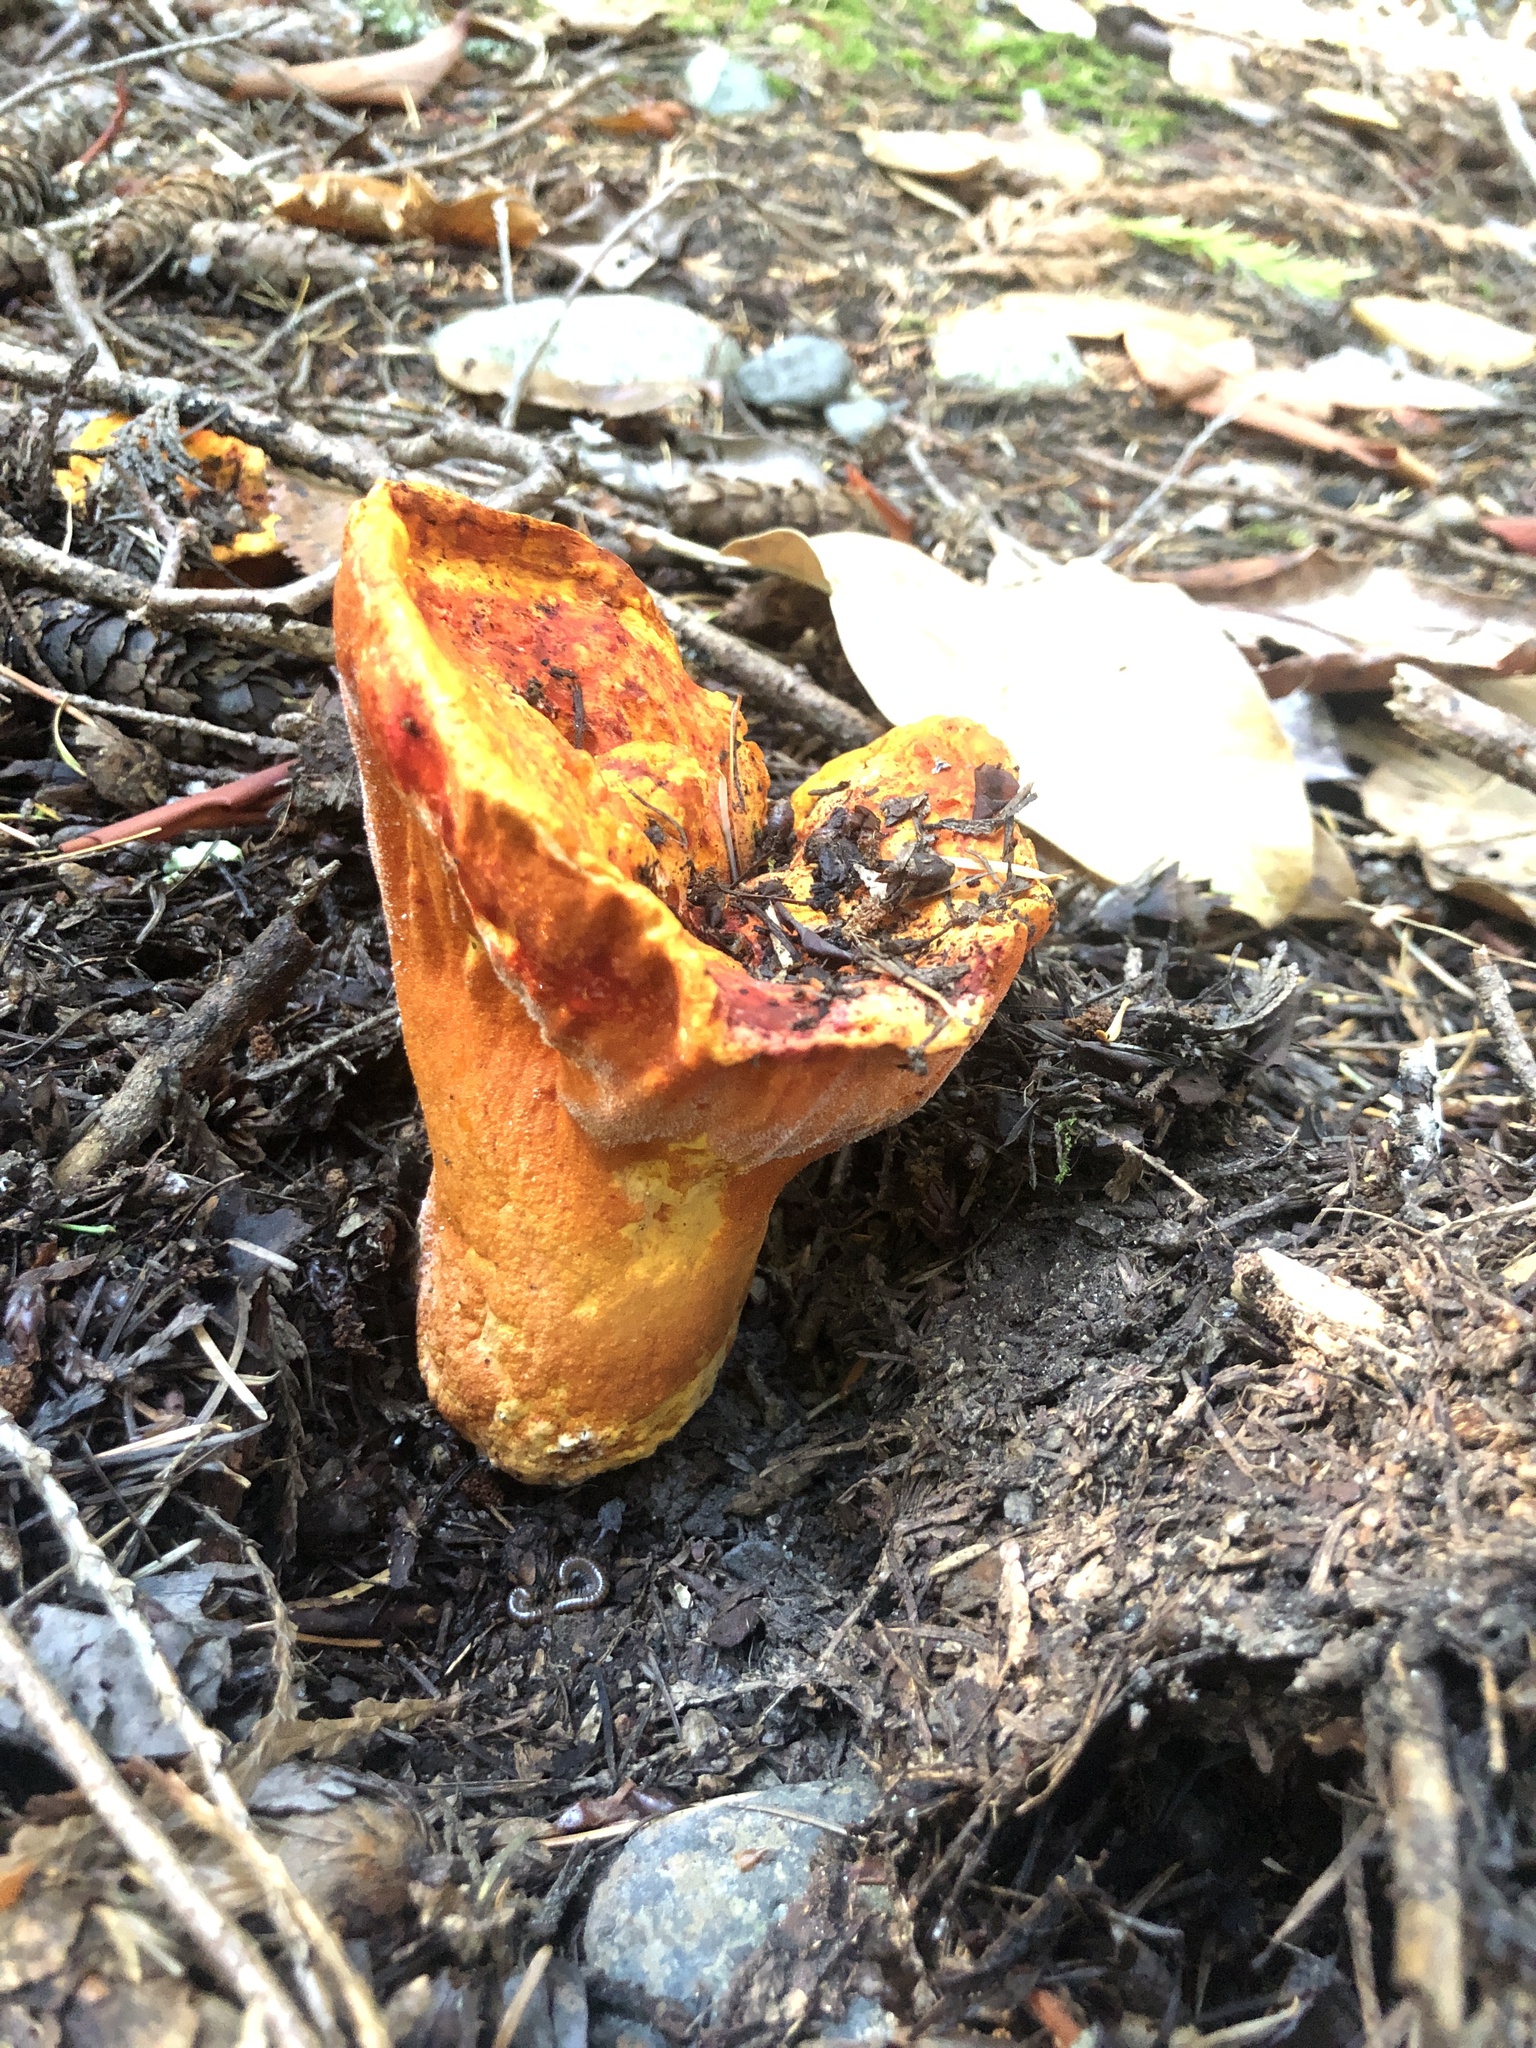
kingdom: Fungi
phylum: Ascomycota
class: Sordariomycetes
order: Hypocreales
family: Hypocreaceae
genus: Hypomyces
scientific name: Hypomyces lactifluorum
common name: Lobster mushroom
